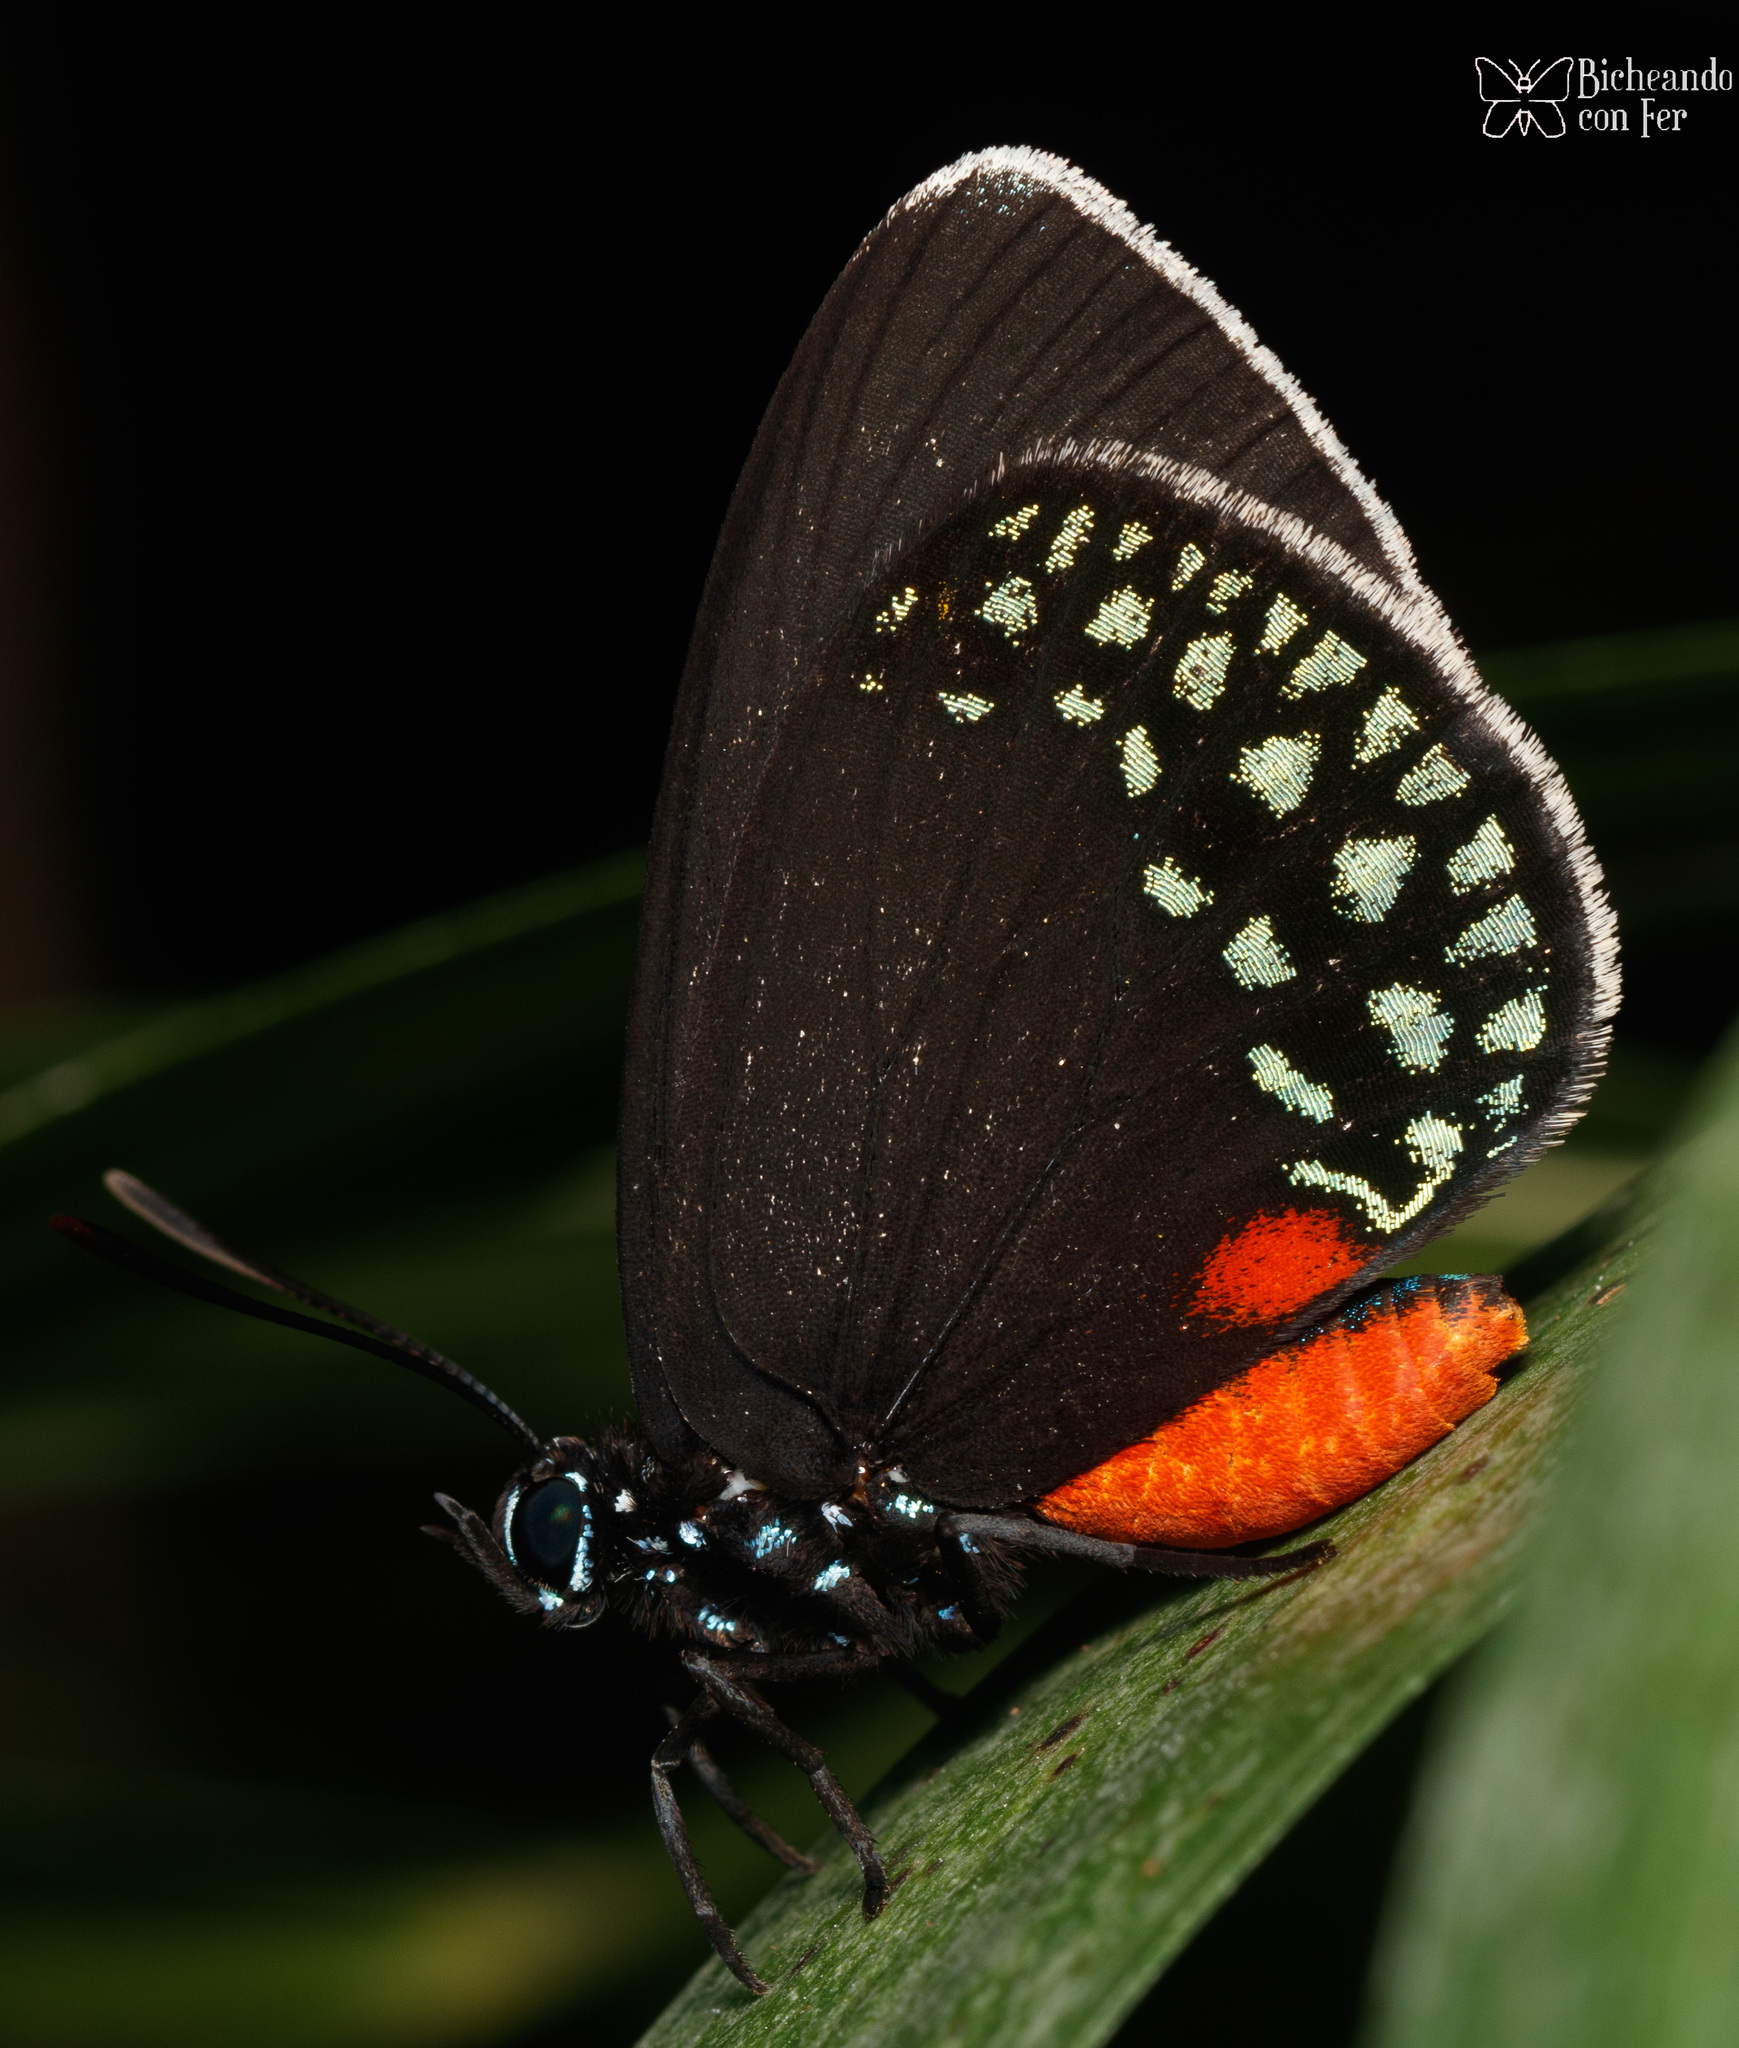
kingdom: Animalia
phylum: Arthropoda
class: Insecta
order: Lepidoptera
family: Lycaenidae
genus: Eumaeus
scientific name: Eumaeus toxea
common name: Mexican cycadian
